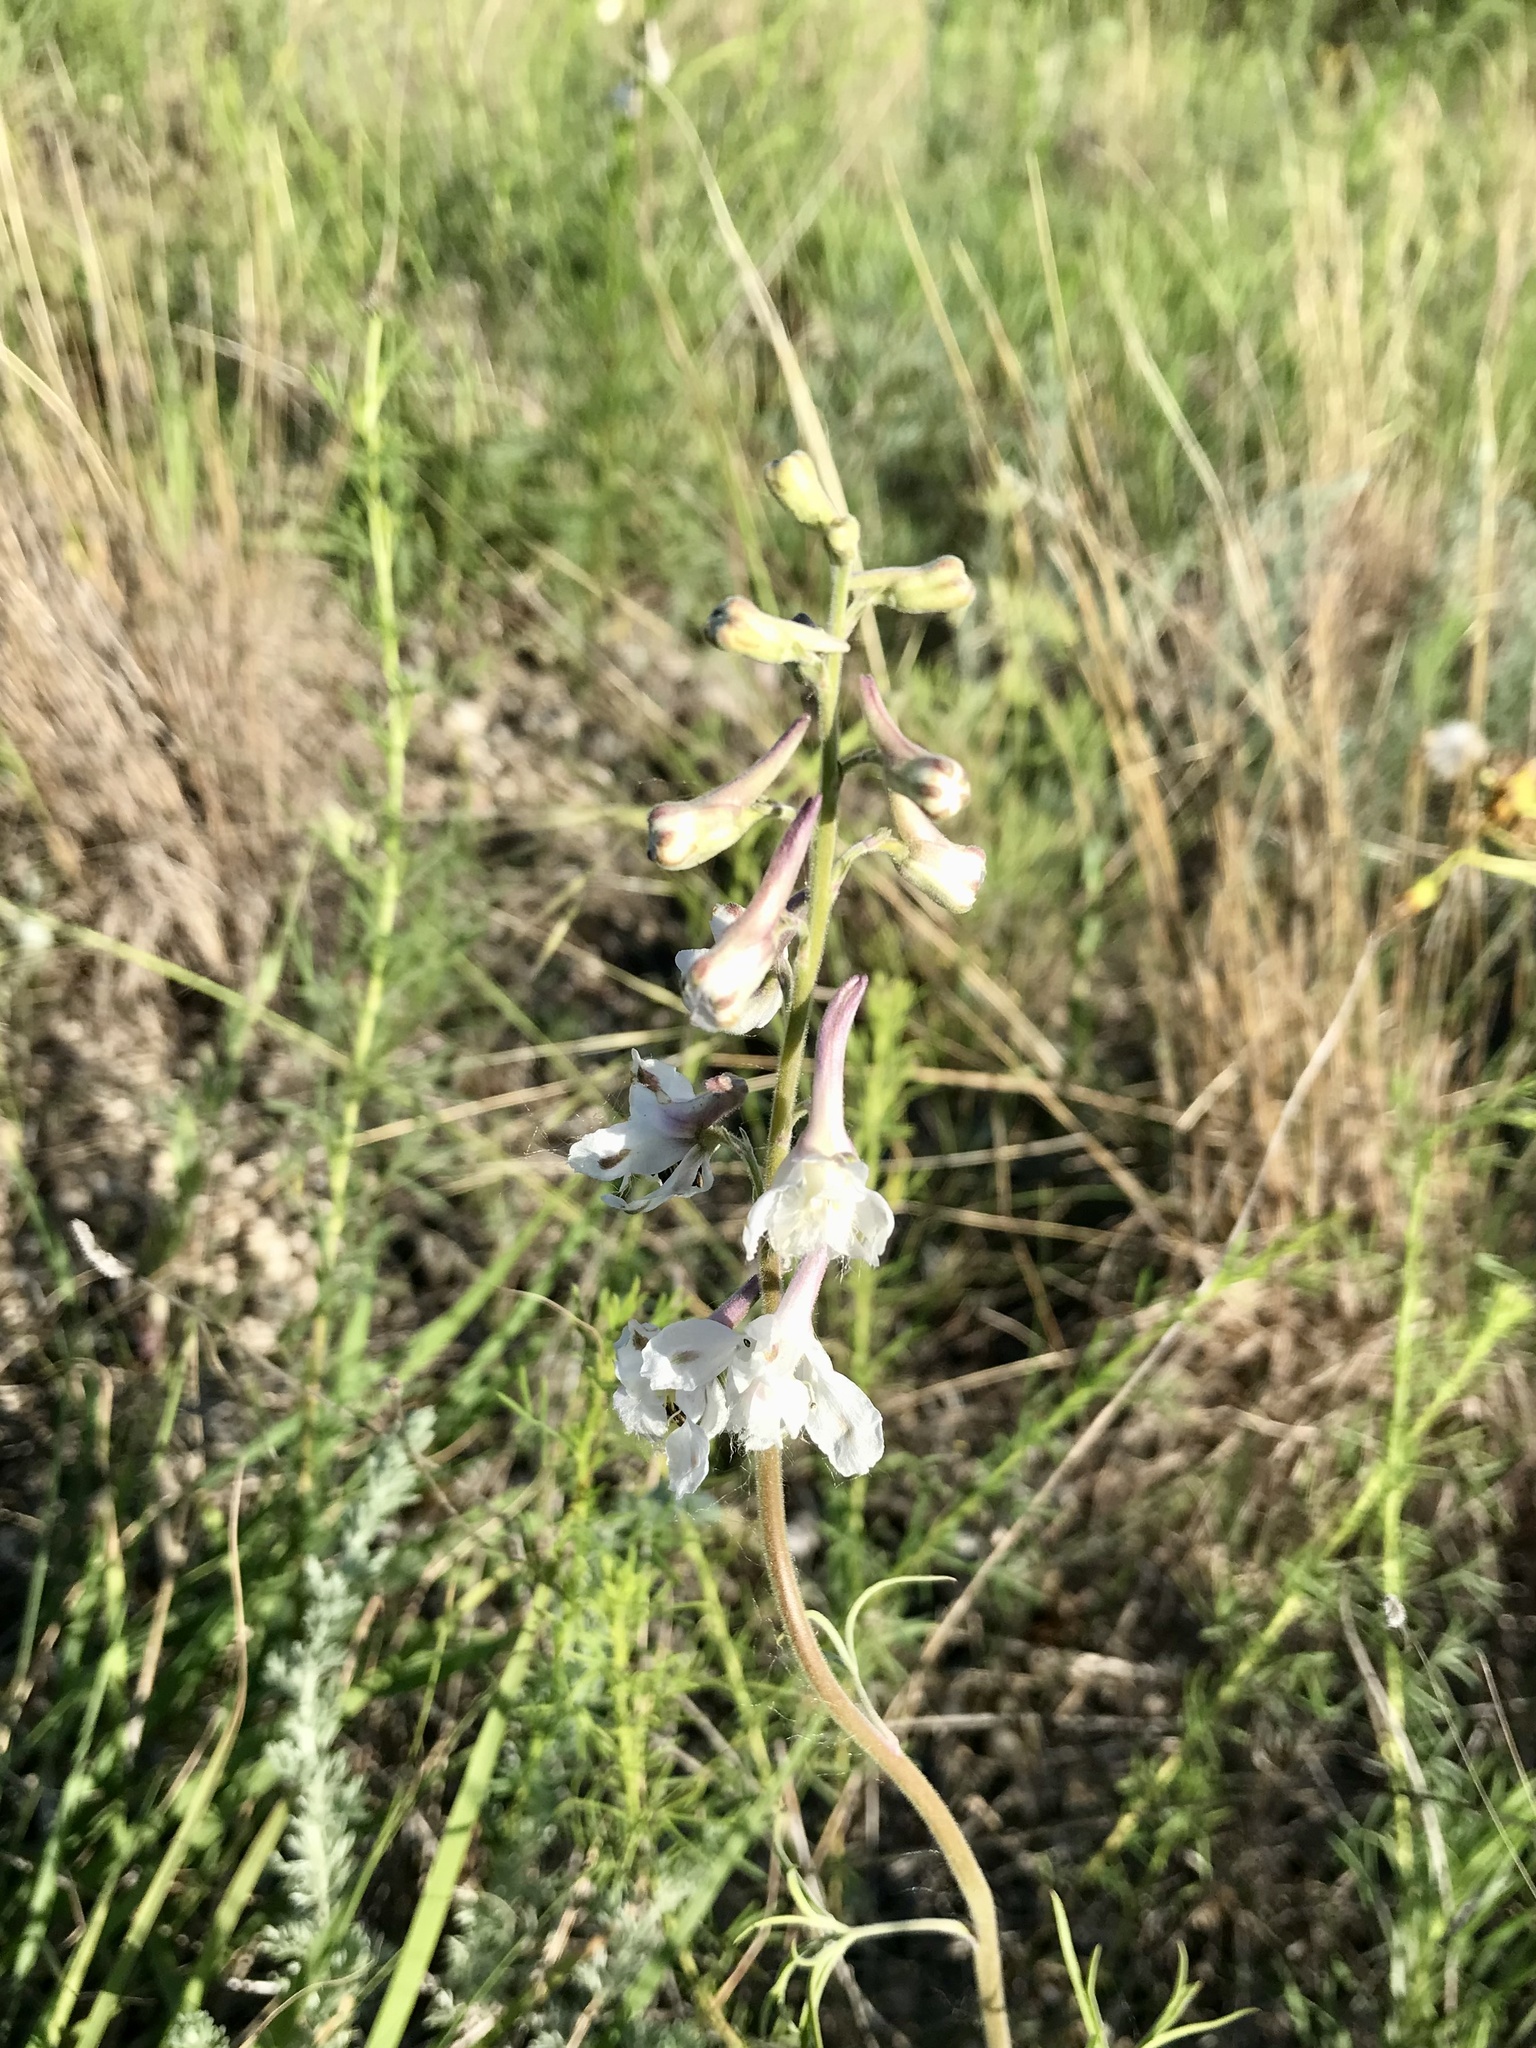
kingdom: Plantae
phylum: Tracheophyta
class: Magnoliopsida
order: Ranunculales
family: Ranunculaceae
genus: Delphinium
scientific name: Delphinium carolinianum
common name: Carolina larkspur
